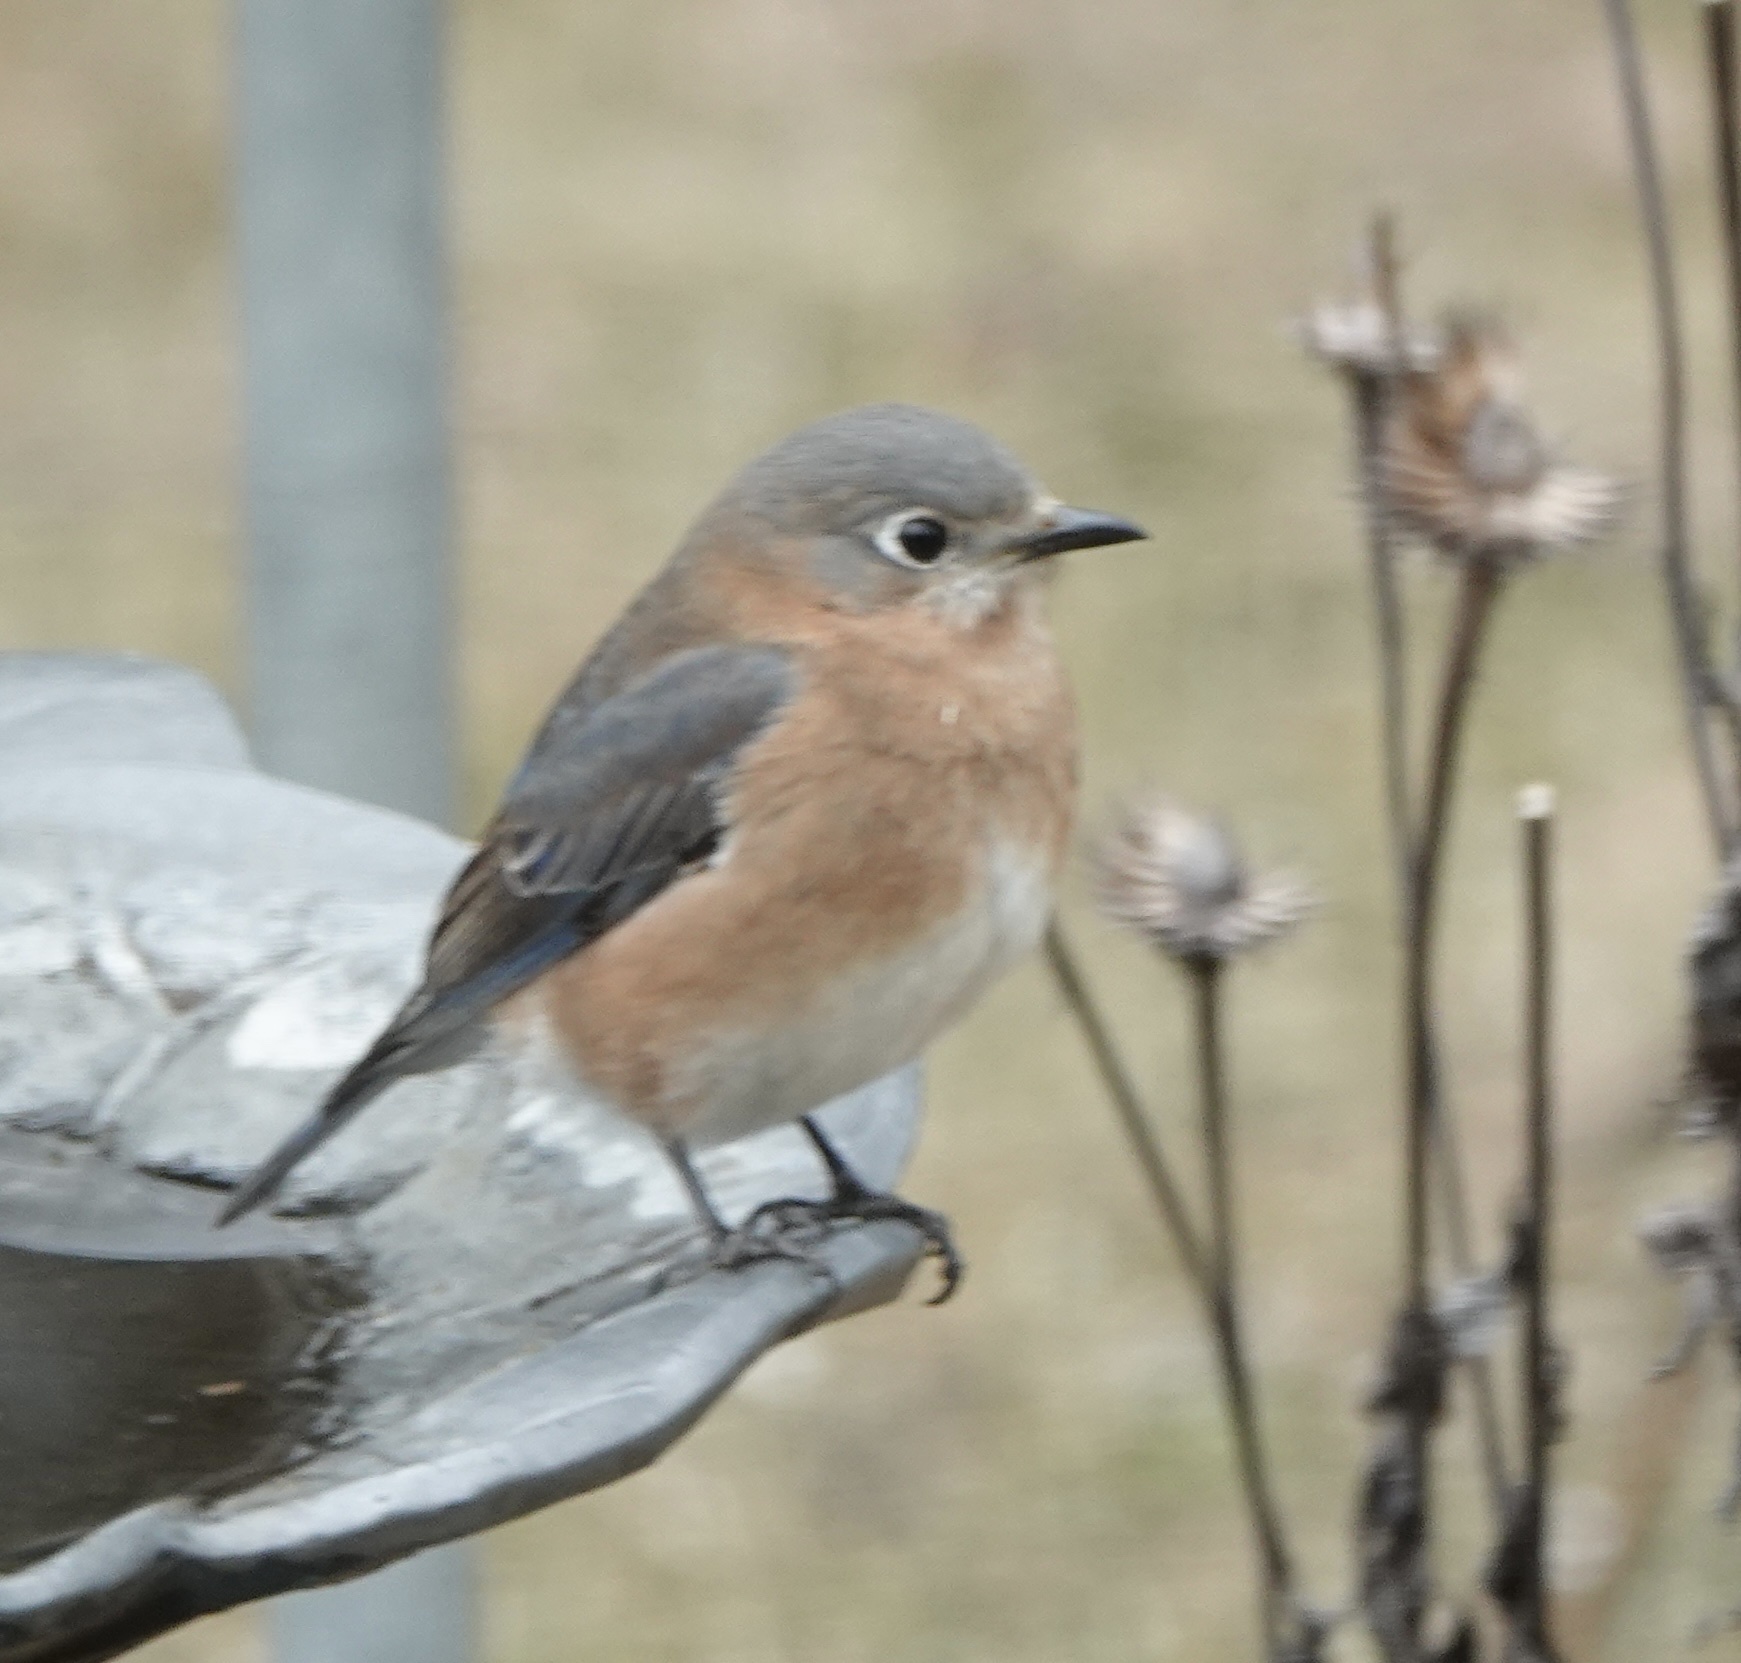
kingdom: Animalia
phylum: Chordata
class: Aves
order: Passeriformes
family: Turdidae
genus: Sialia
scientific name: Sialia sialis
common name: Eastern bluebird
